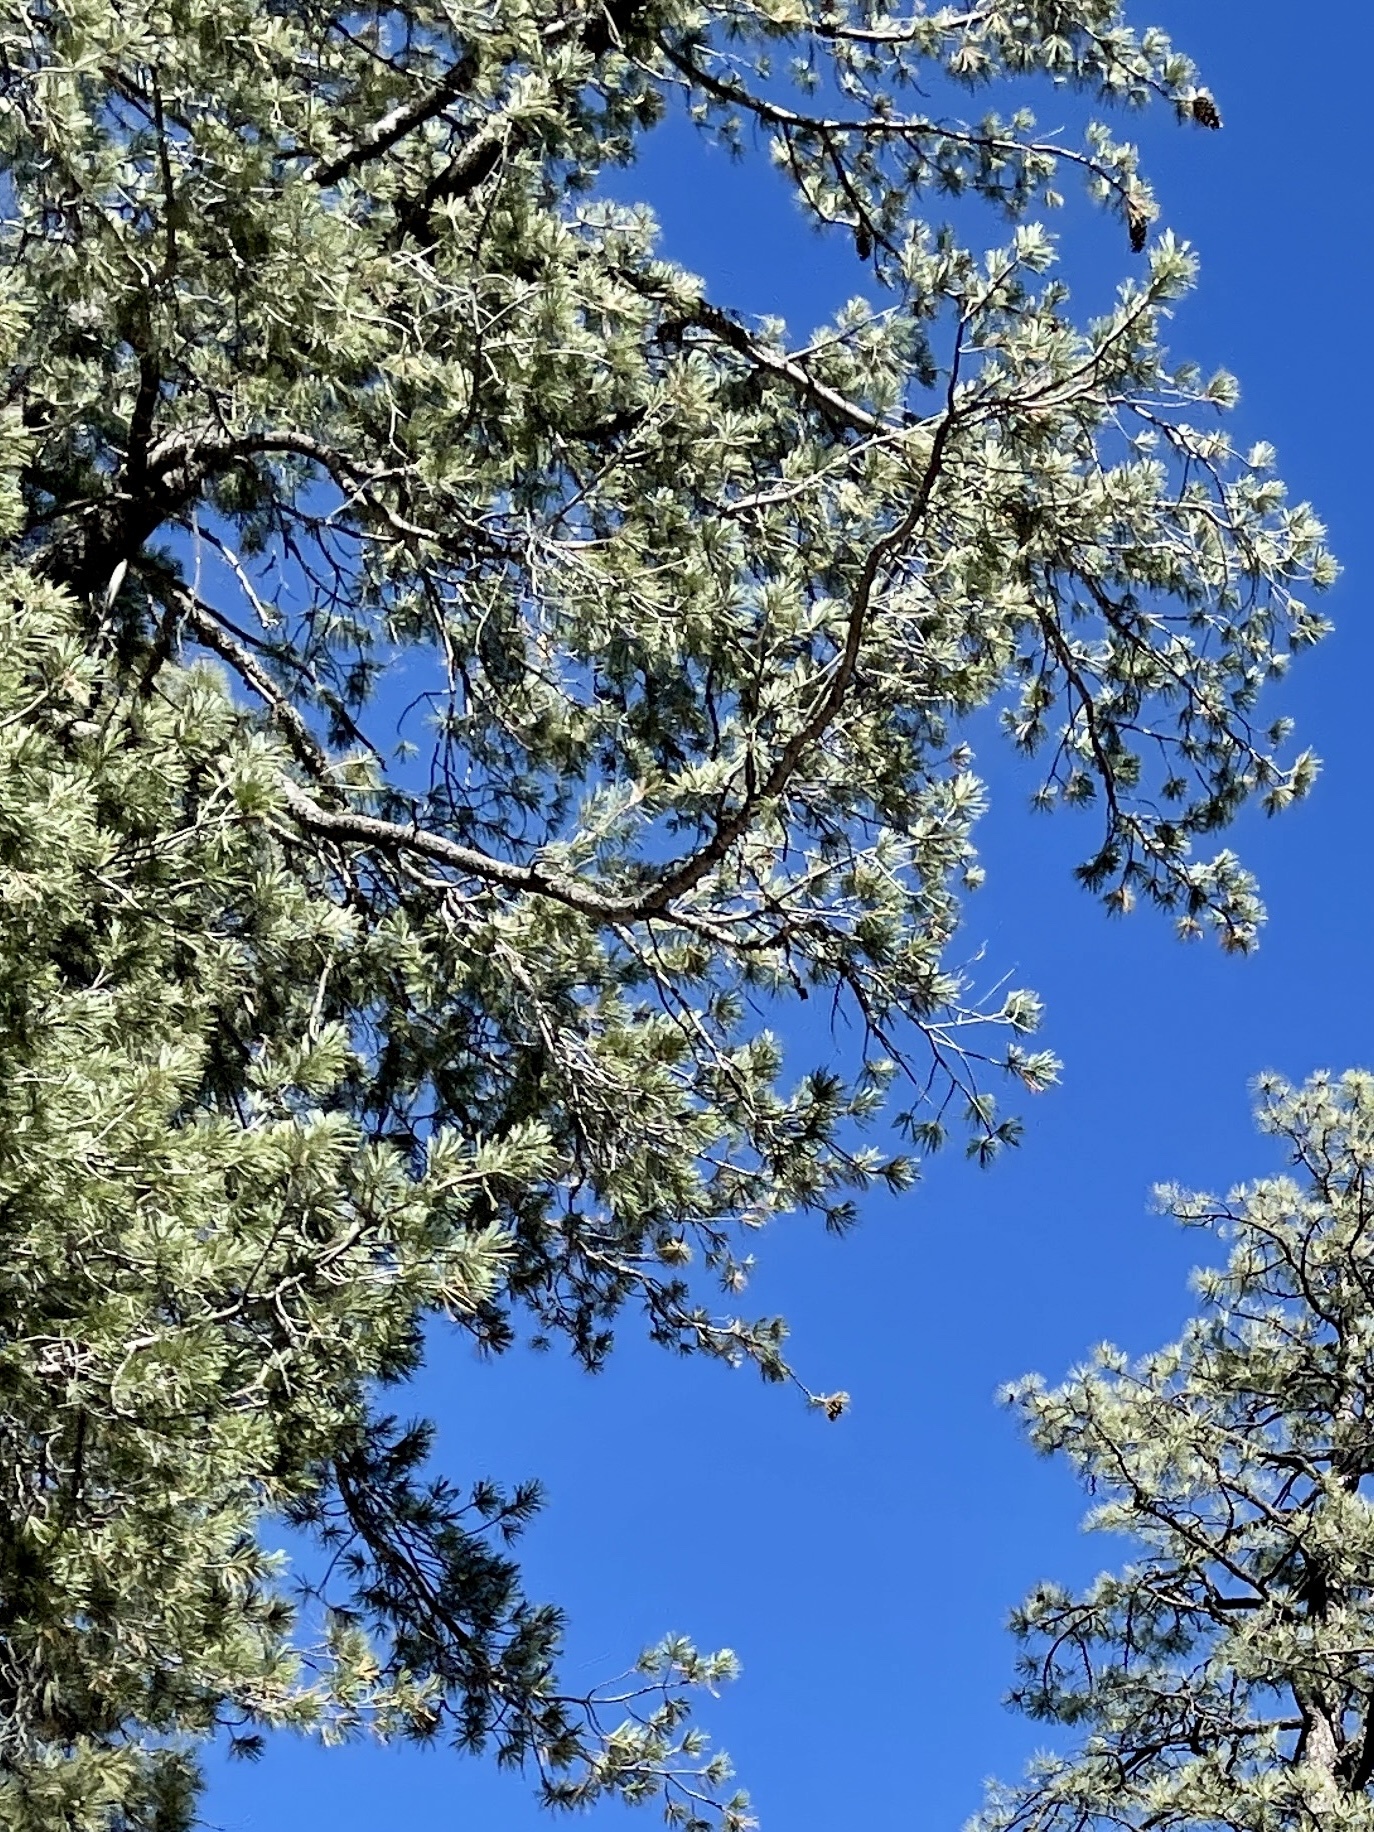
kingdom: Plantae
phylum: Tracheophyta
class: Pinopsida
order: Pinales
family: Pinaceae
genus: Pinus
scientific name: Pinus strobiformis
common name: Southwestern white pine
